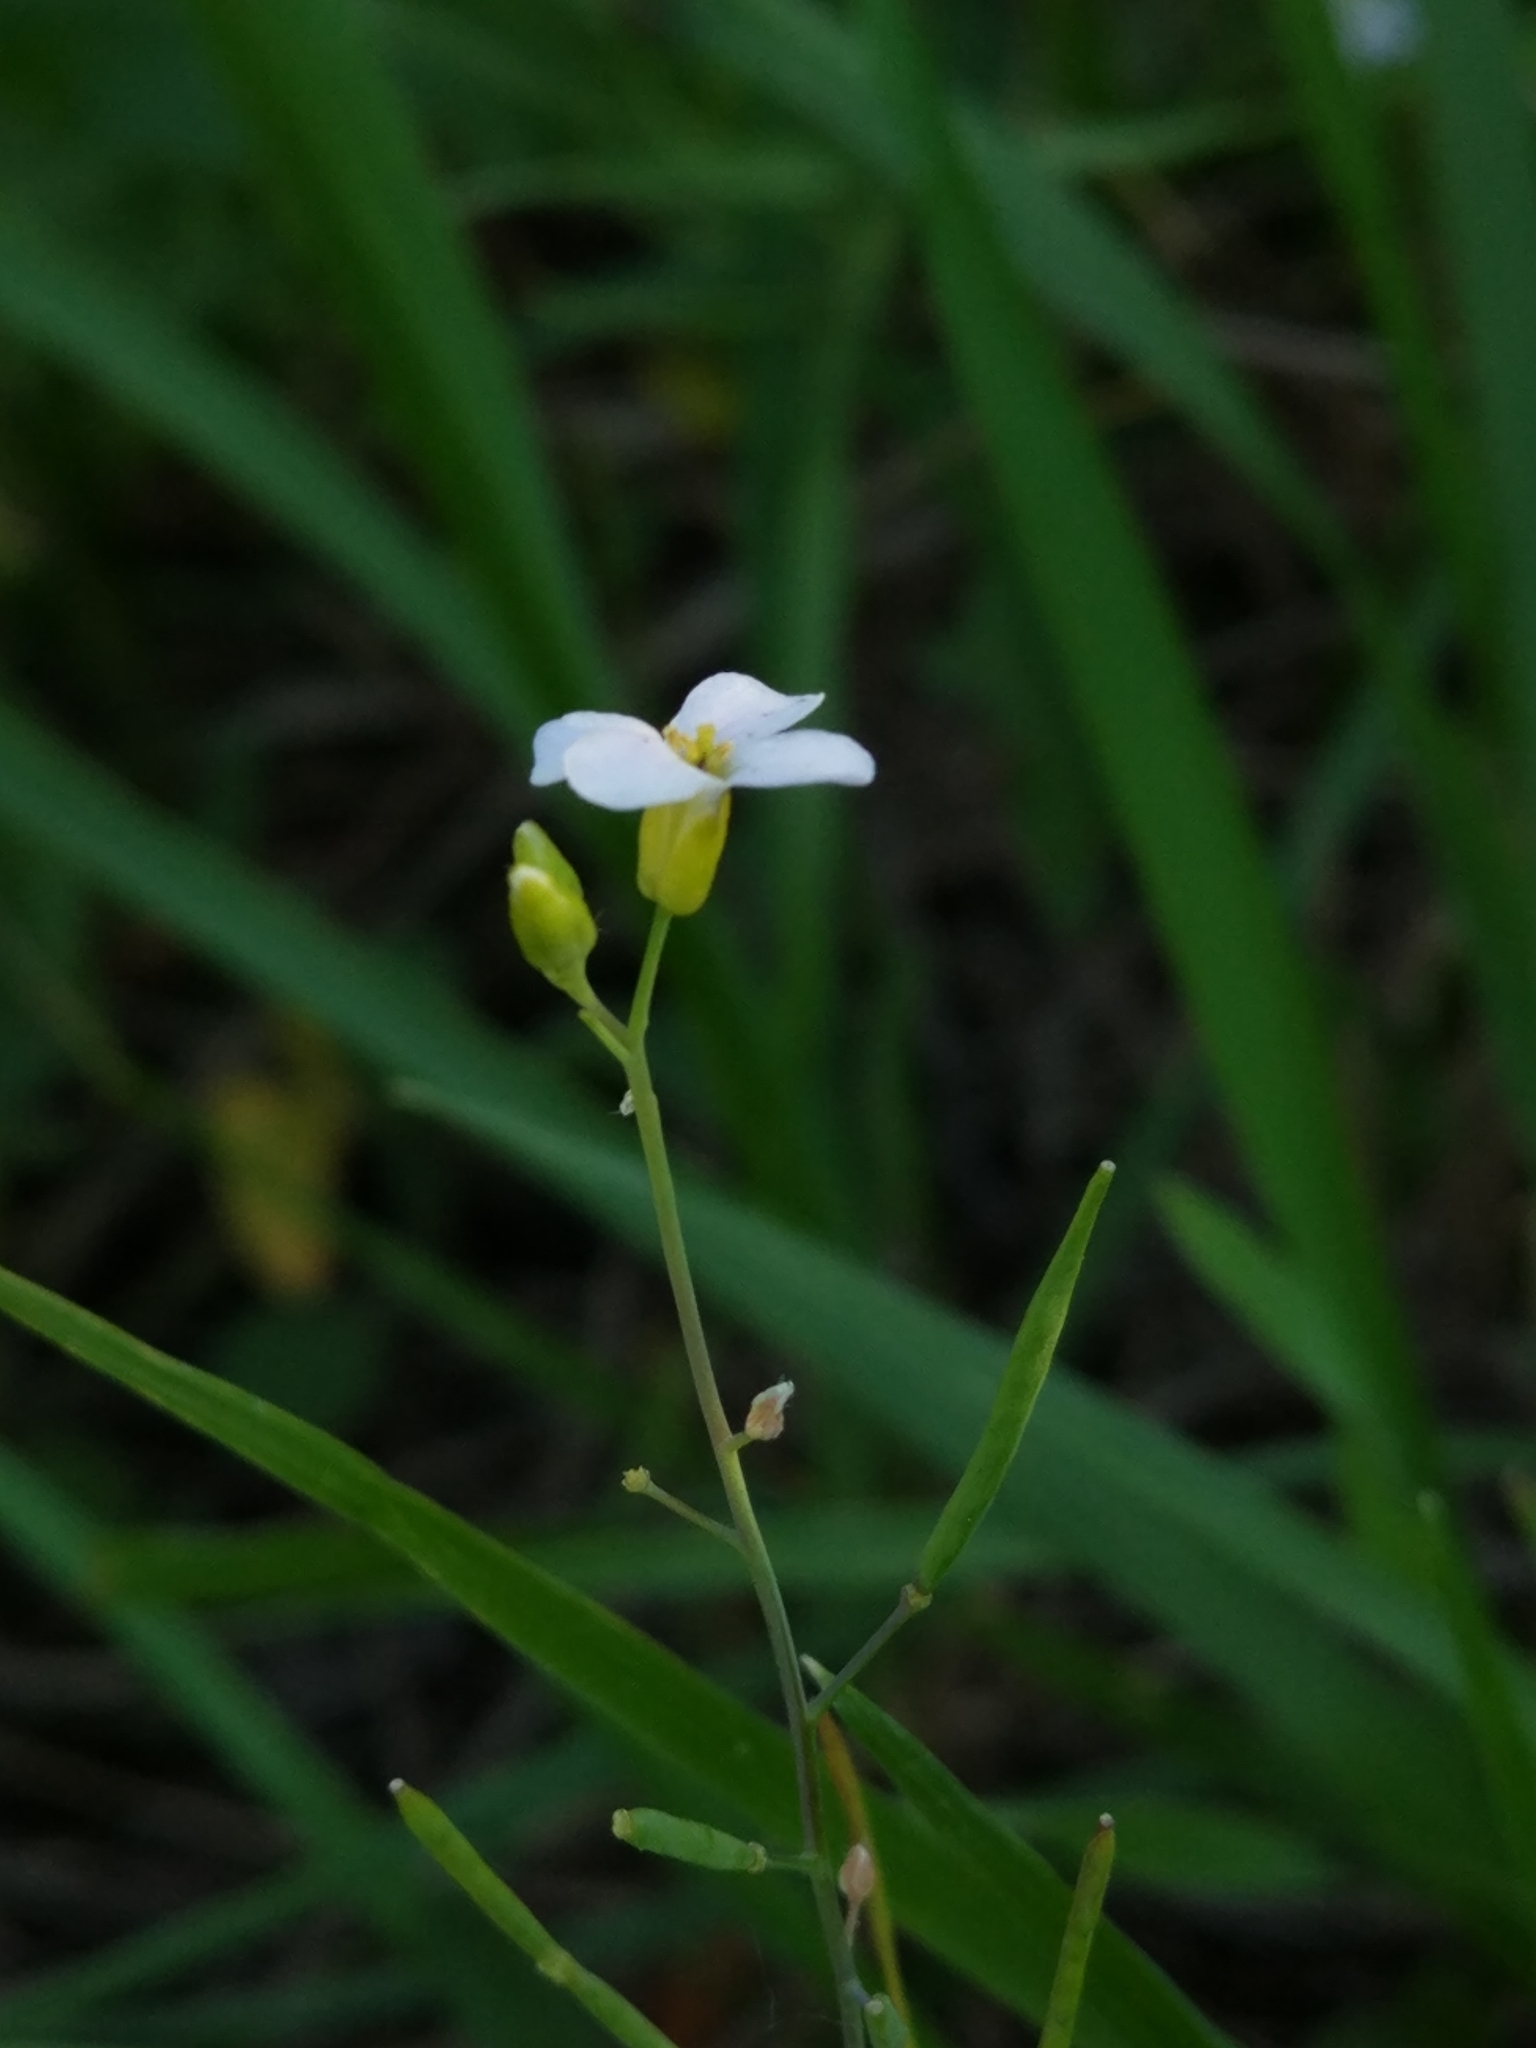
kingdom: Plantae
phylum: Tracheophyta
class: Magnoliopsida
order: Brassicales
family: Brassicaceae
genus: Arabidopsis
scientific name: Arabidopsis arenosa
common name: Sand rock-cress
